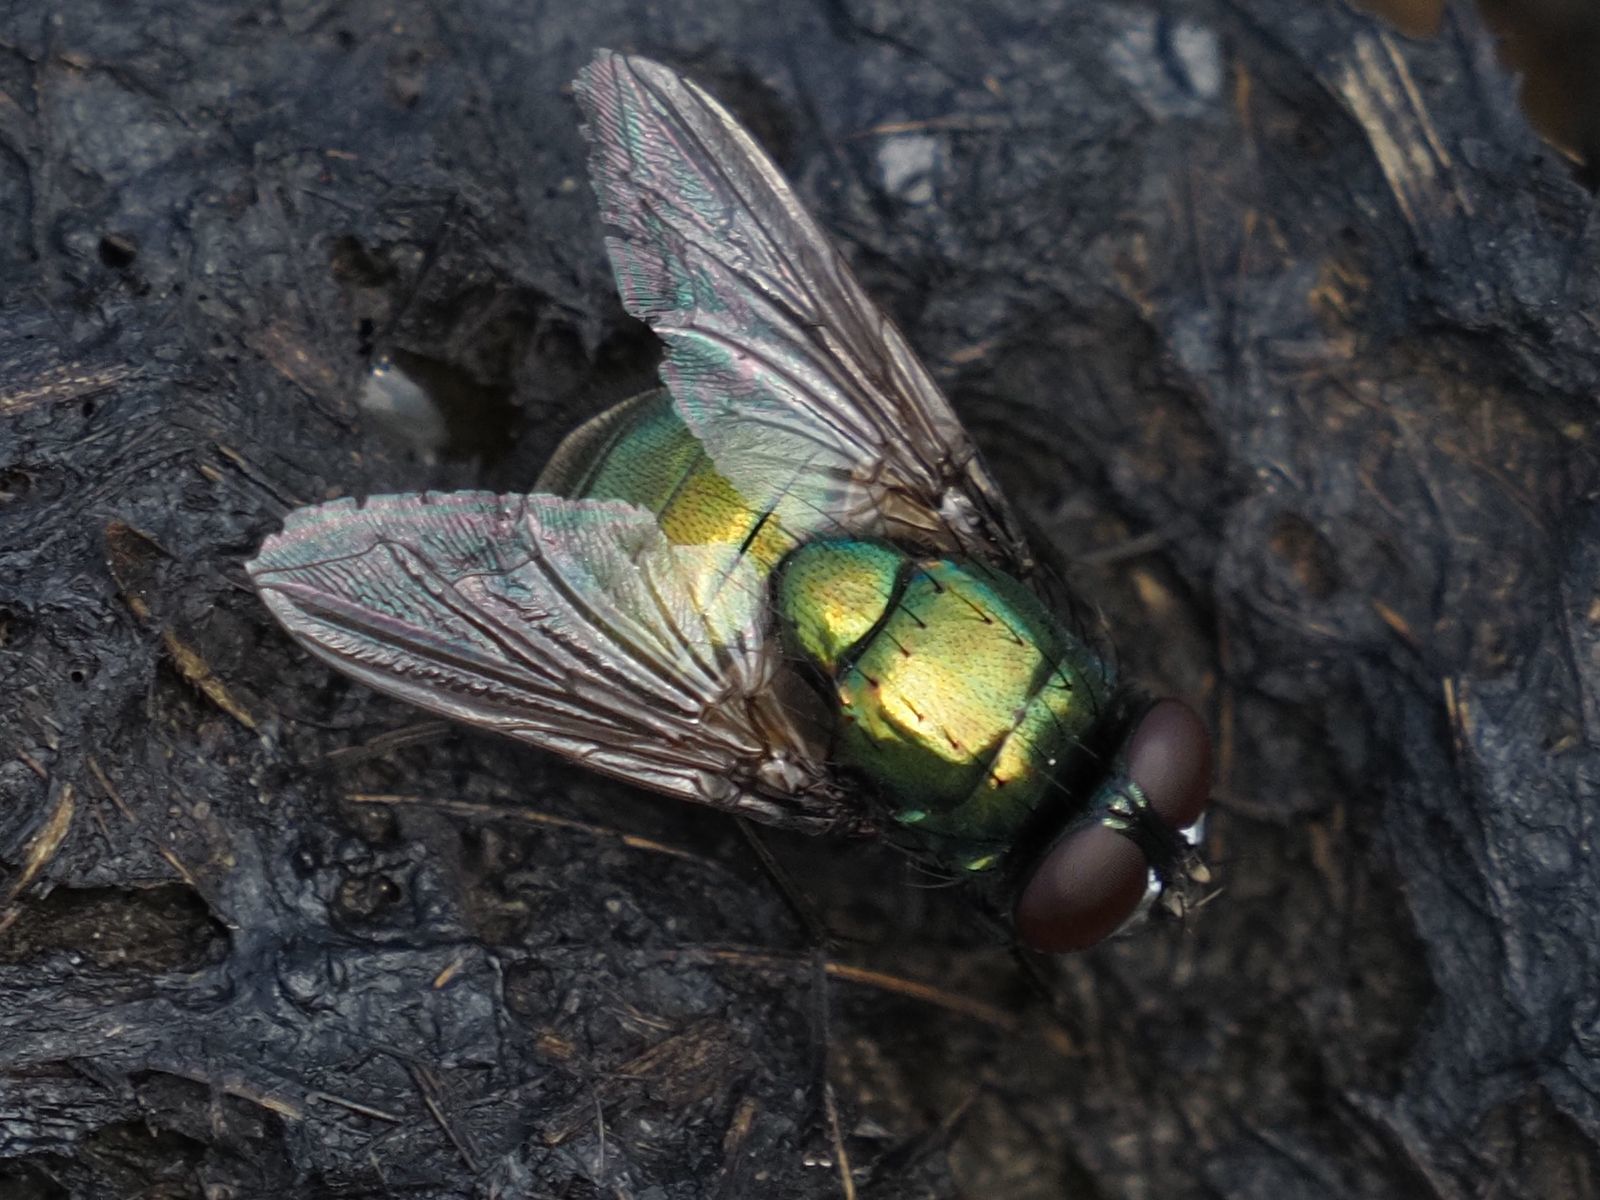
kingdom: Animalia
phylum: Arthropoda
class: Insecta
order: Diptera
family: Muscidae
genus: Neomyia
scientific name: Neomyia cornicina
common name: House fly
